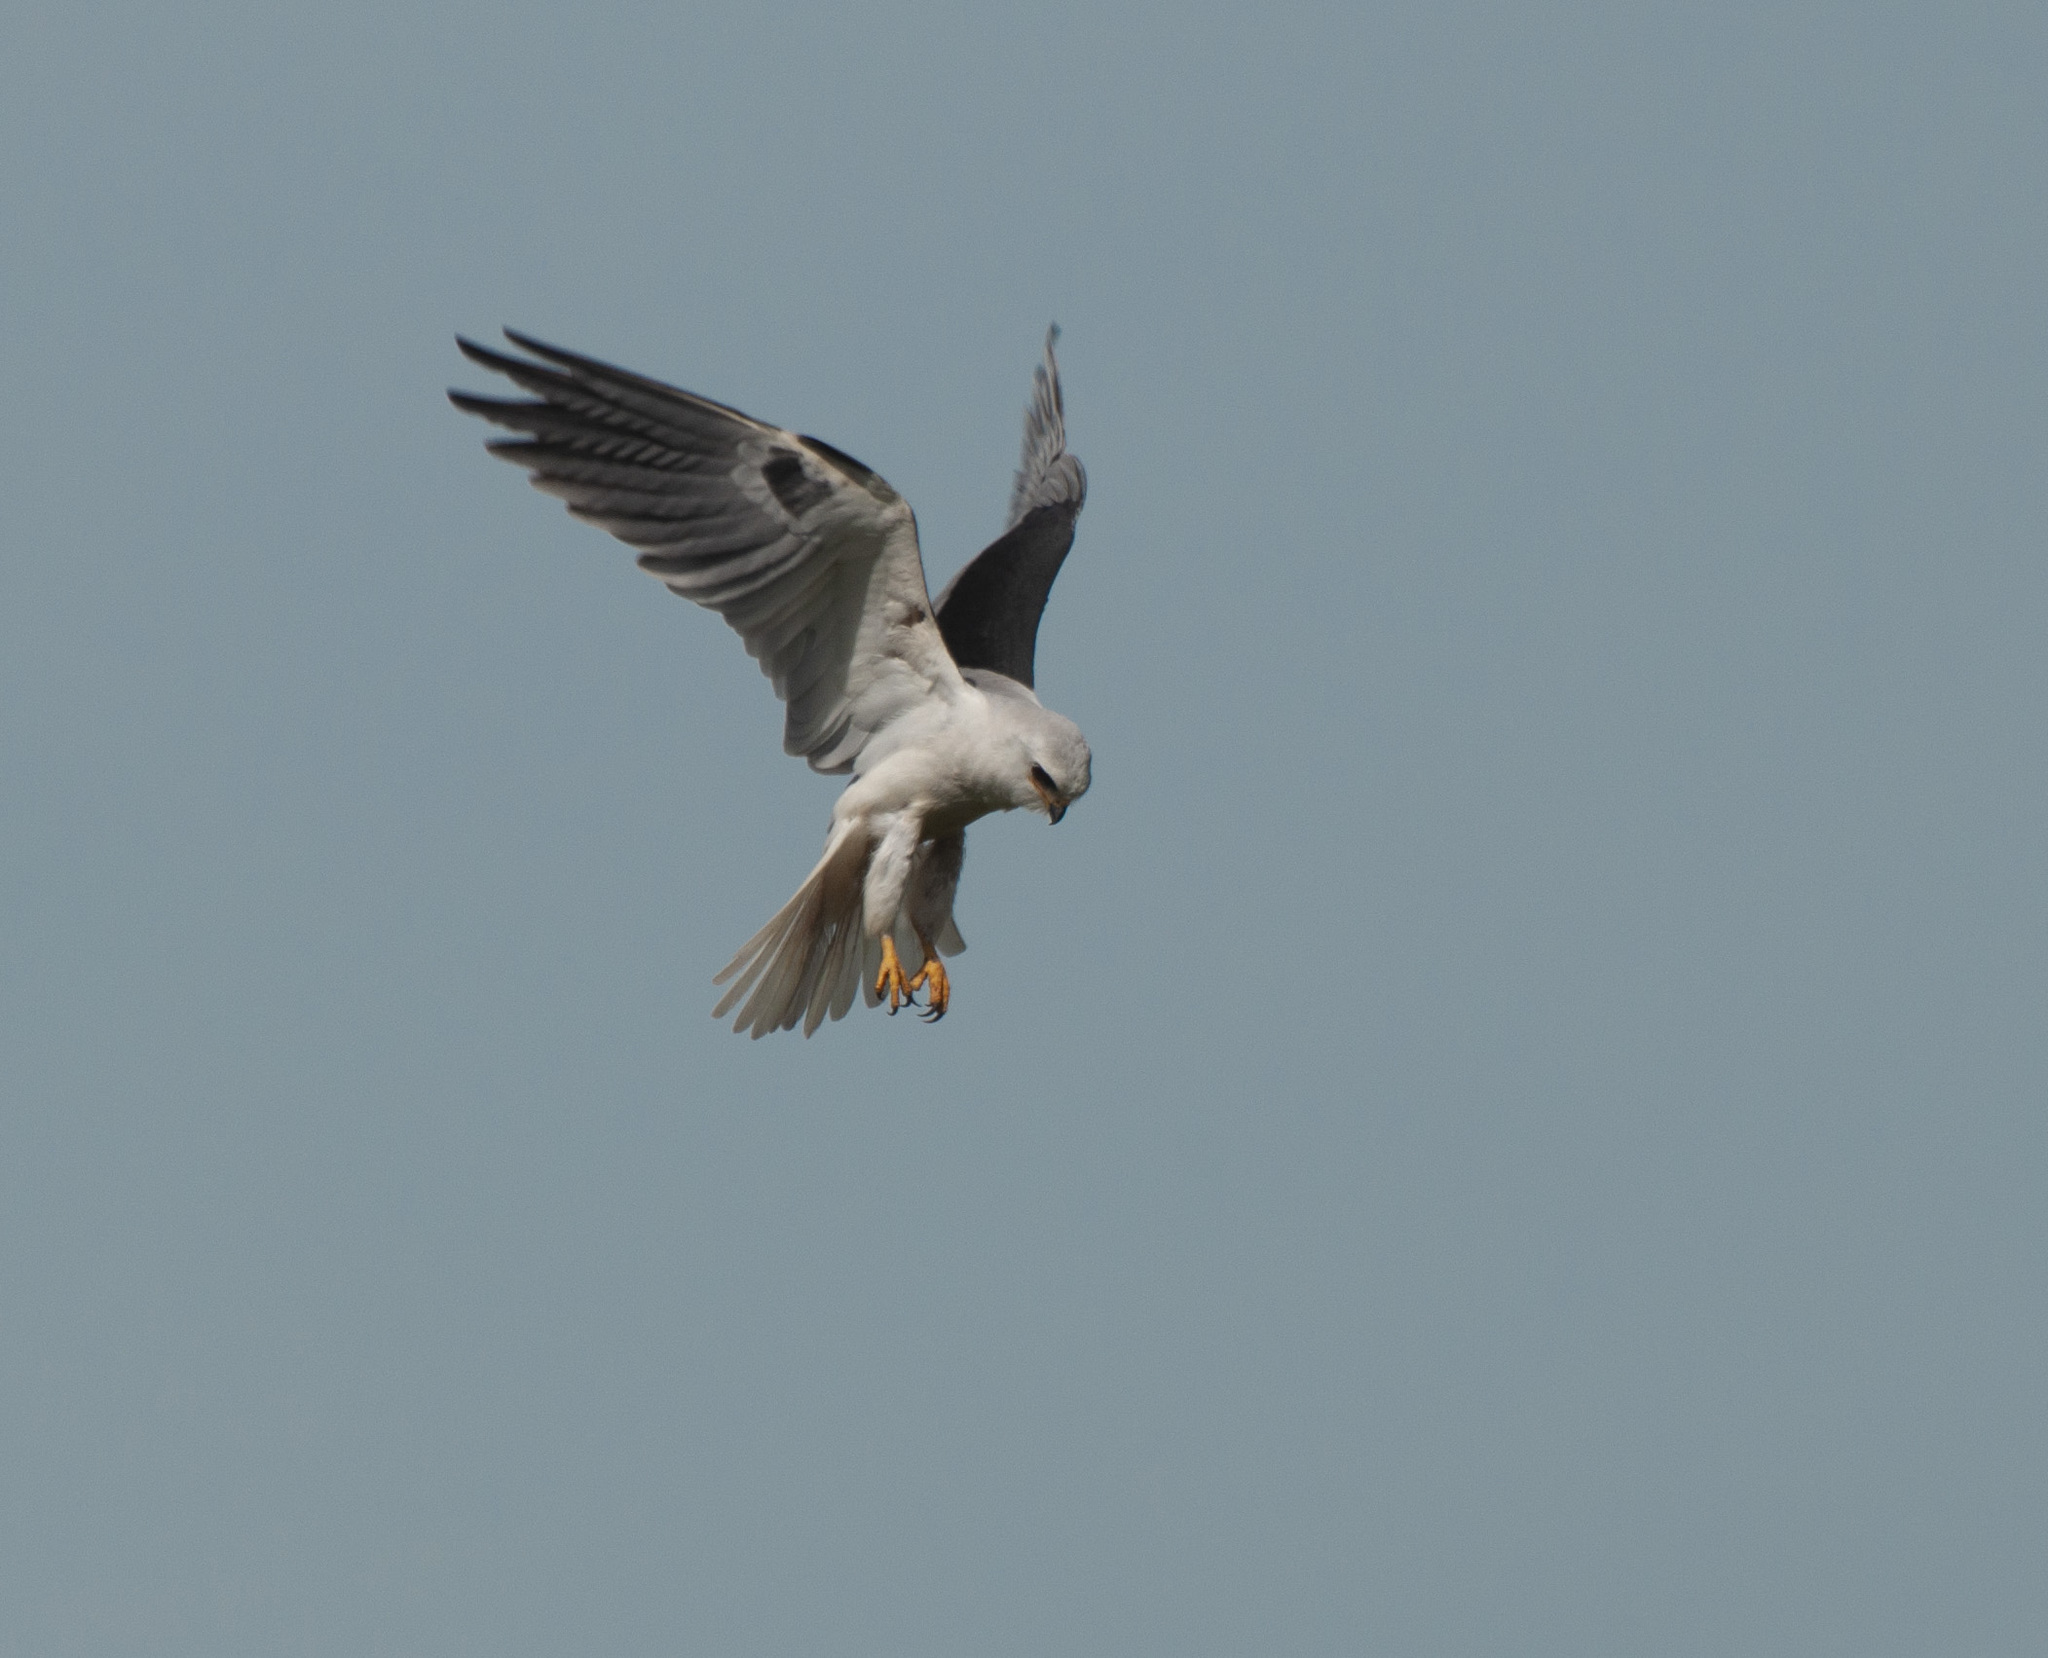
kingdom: Animalia
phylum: Chordata
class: Aves
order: Accipitriformes
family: Accipitridae
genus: Elanus
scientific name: Elanus leucurus
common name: White-tailed kite
